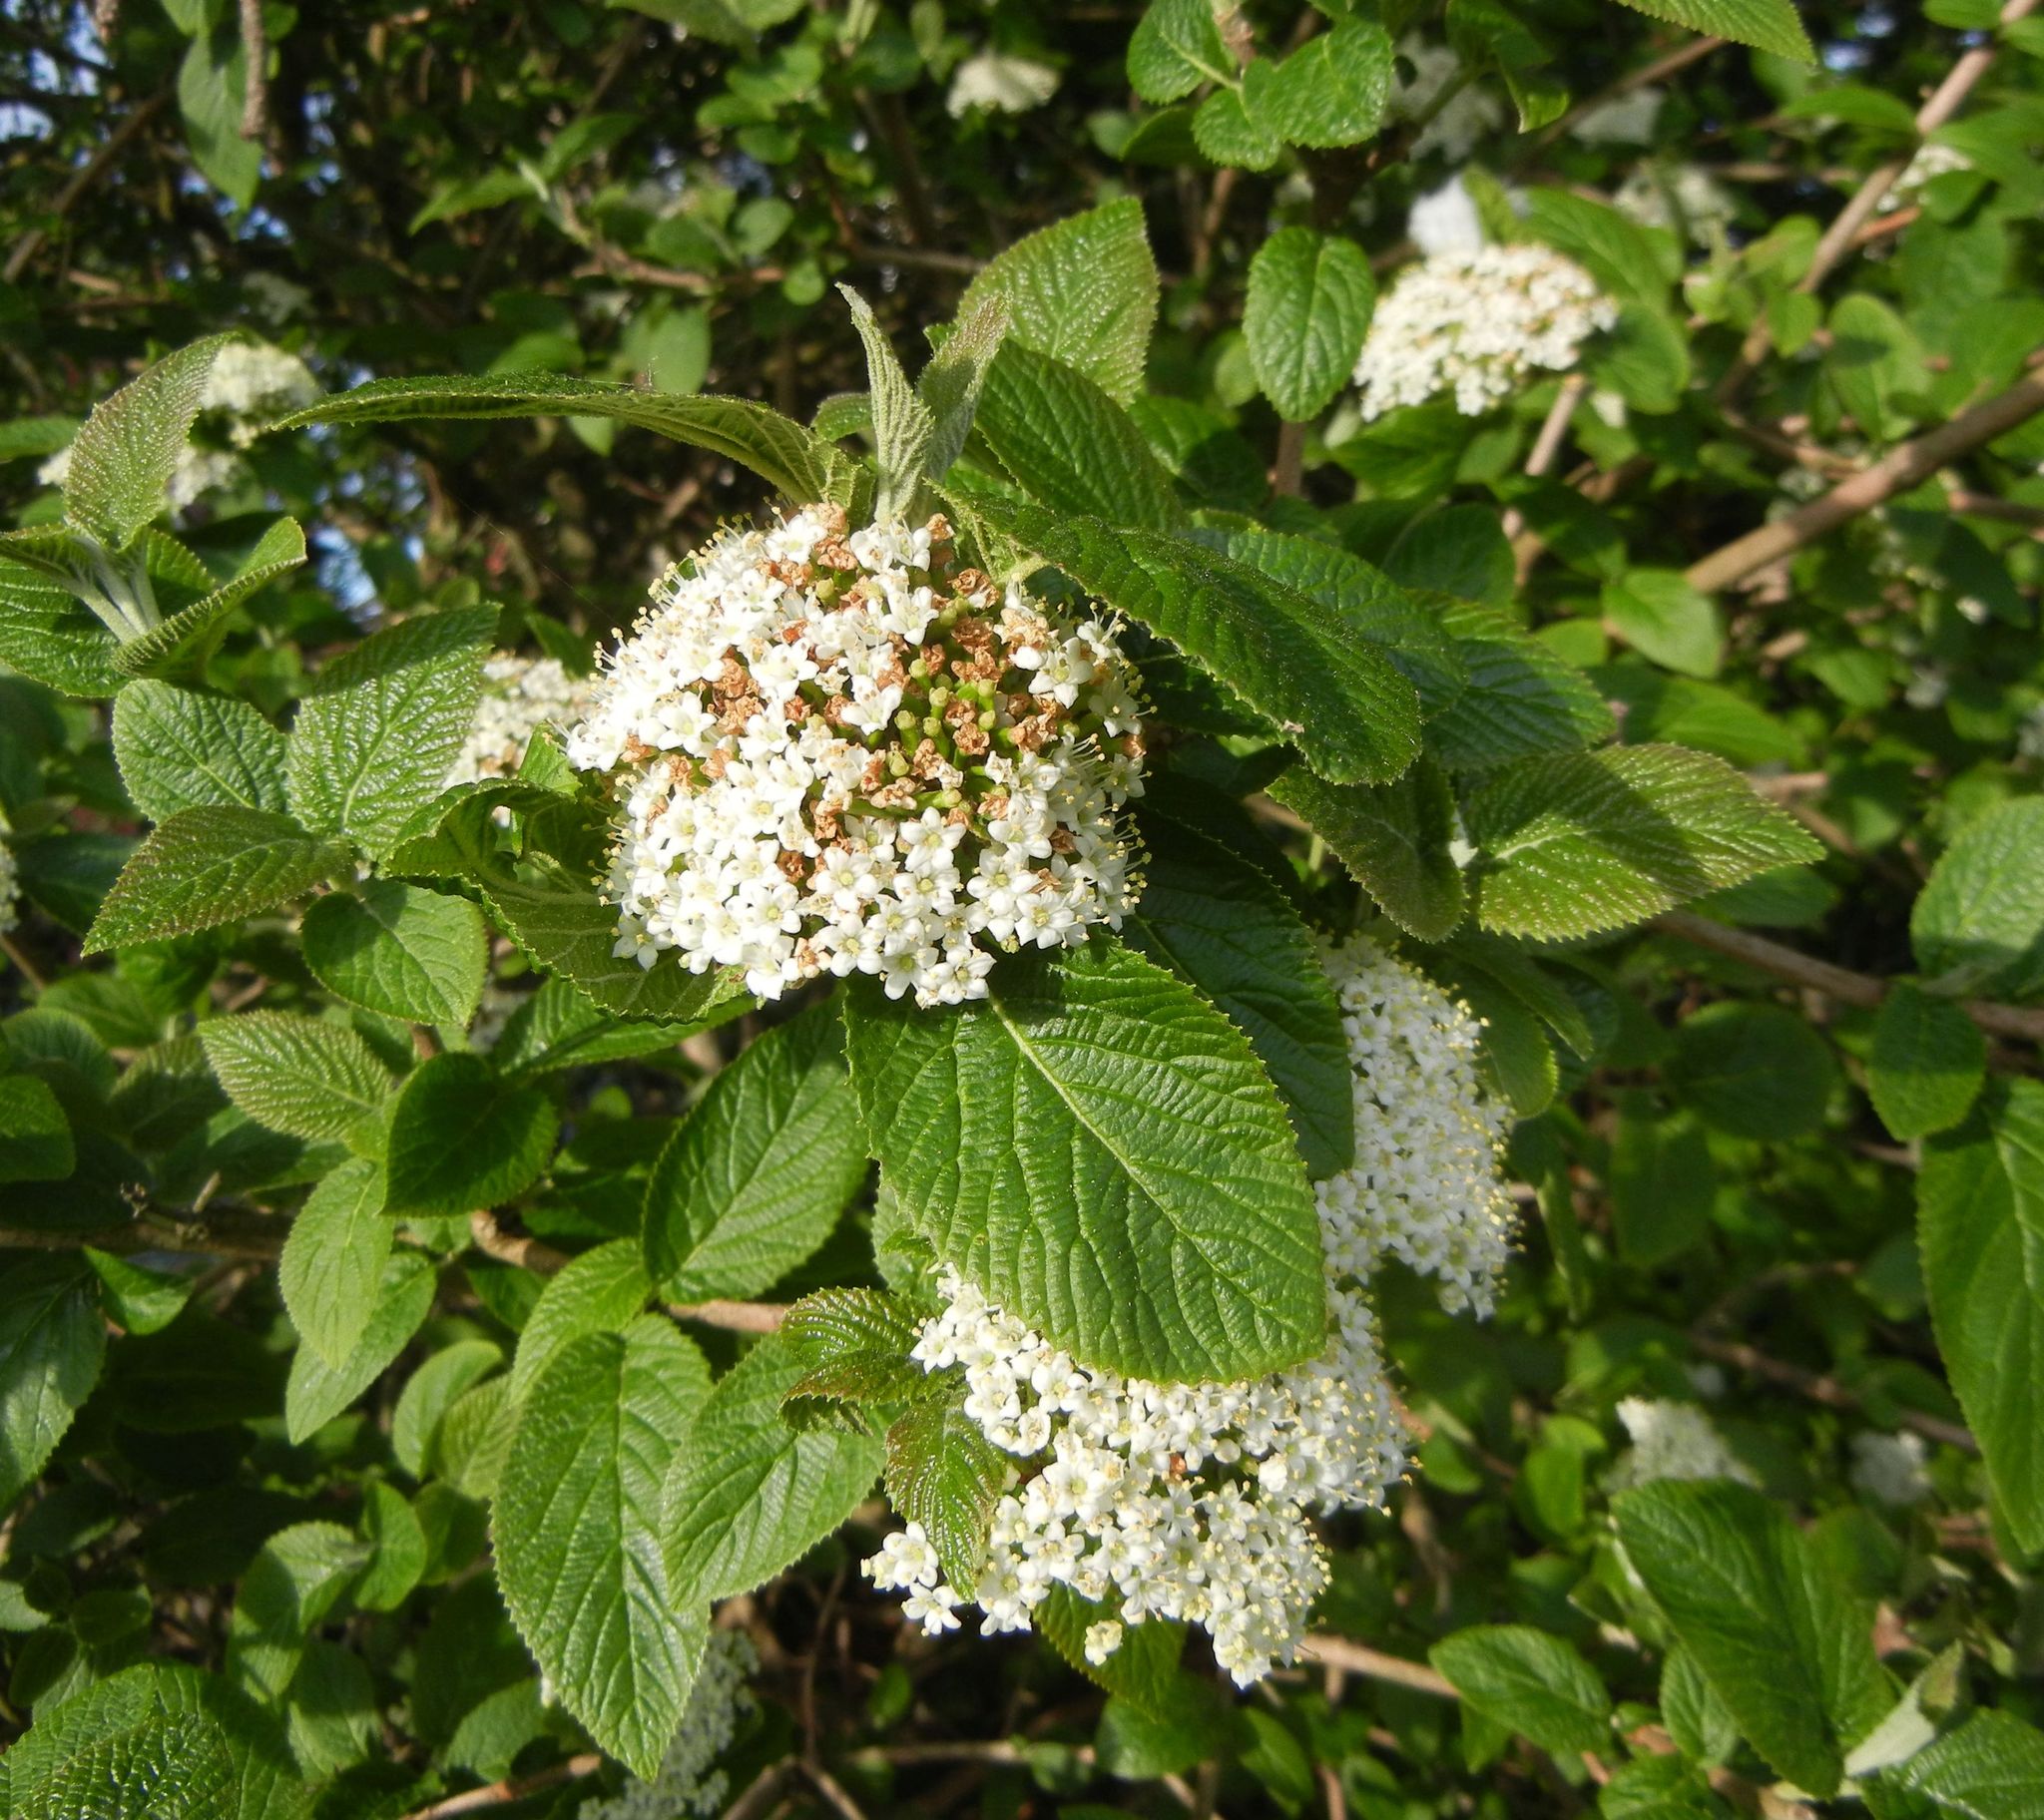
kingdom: Plantae
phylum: Tracheophyta
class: Magnoliopsida
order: Dipsacales
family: Viburnaceae
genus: Viburnum
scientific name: Viburnum lantana
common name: Wayfaring tree
